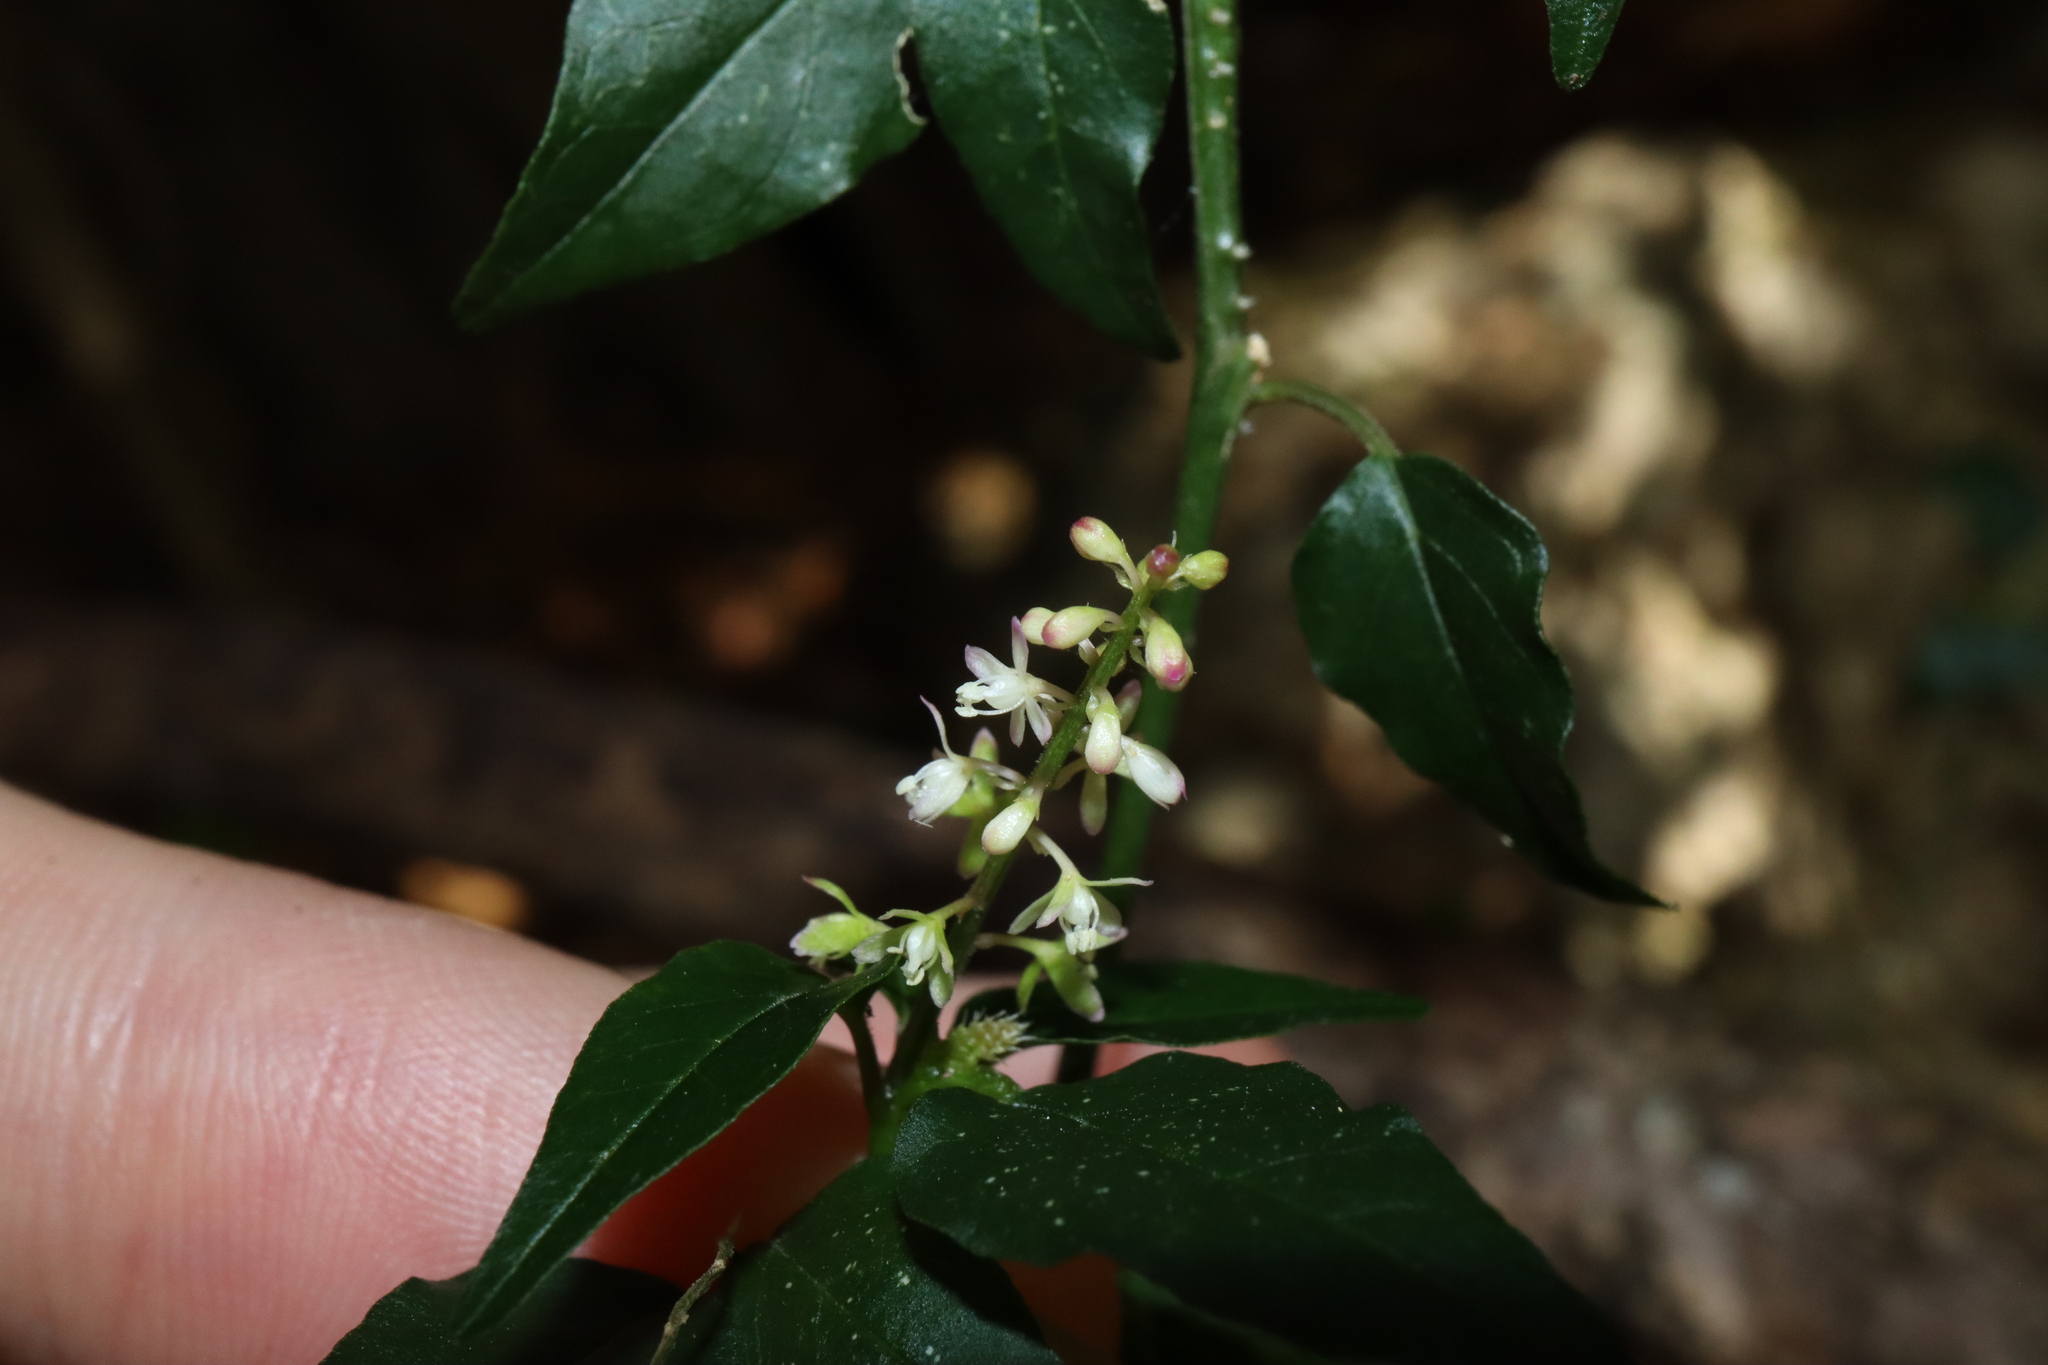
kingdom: Plantae
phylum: Tracheophyta
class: Magnoliopsida
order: Caryophyllales
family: Phytolaccaceae
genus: Rivina
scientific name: Rivina humilis
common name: Rougeplant
